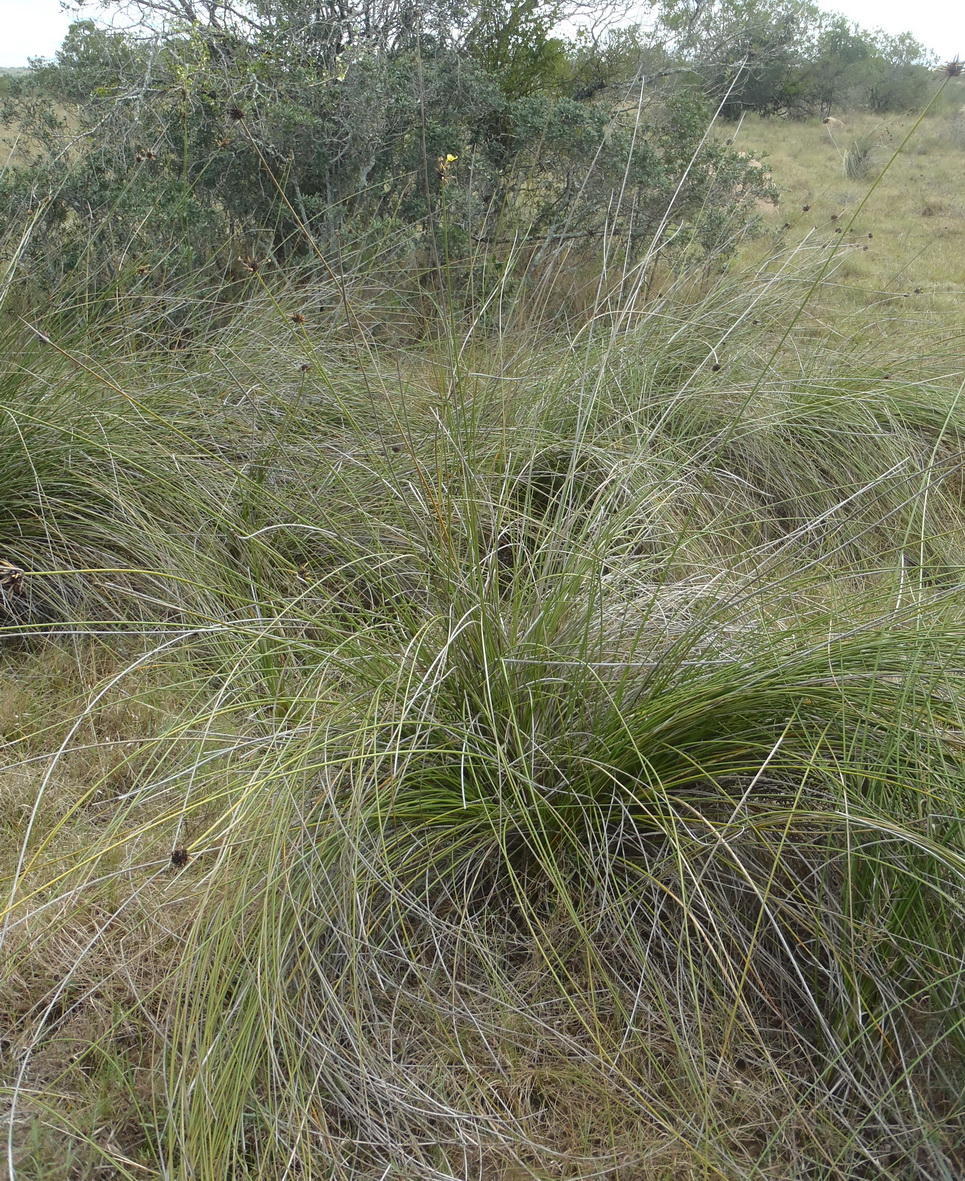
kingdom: Plantae
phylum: Tracheophyta
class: Liliopsida
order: Asparagales
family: Iridaceae
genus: Bobartia
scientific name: Bobartia orientalis
